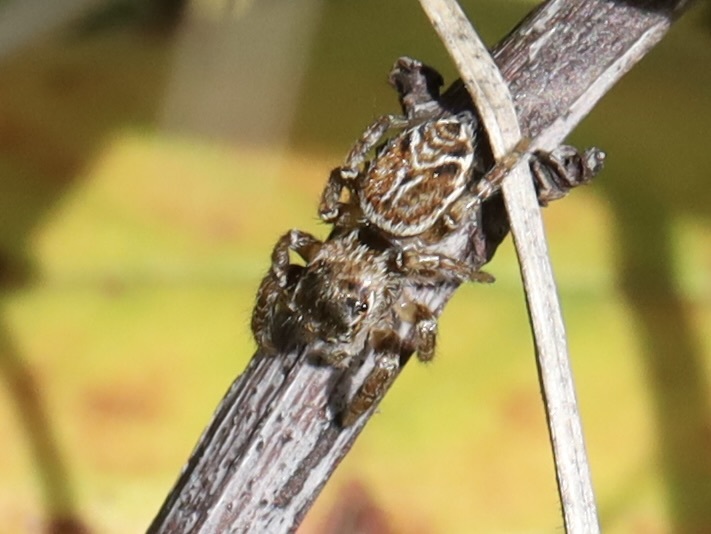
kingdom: Animalia
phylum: Arthropoda
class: Arachnida
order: Araneae
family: Salticidae
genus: Evarcha
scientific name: Evarcha proszynskii
